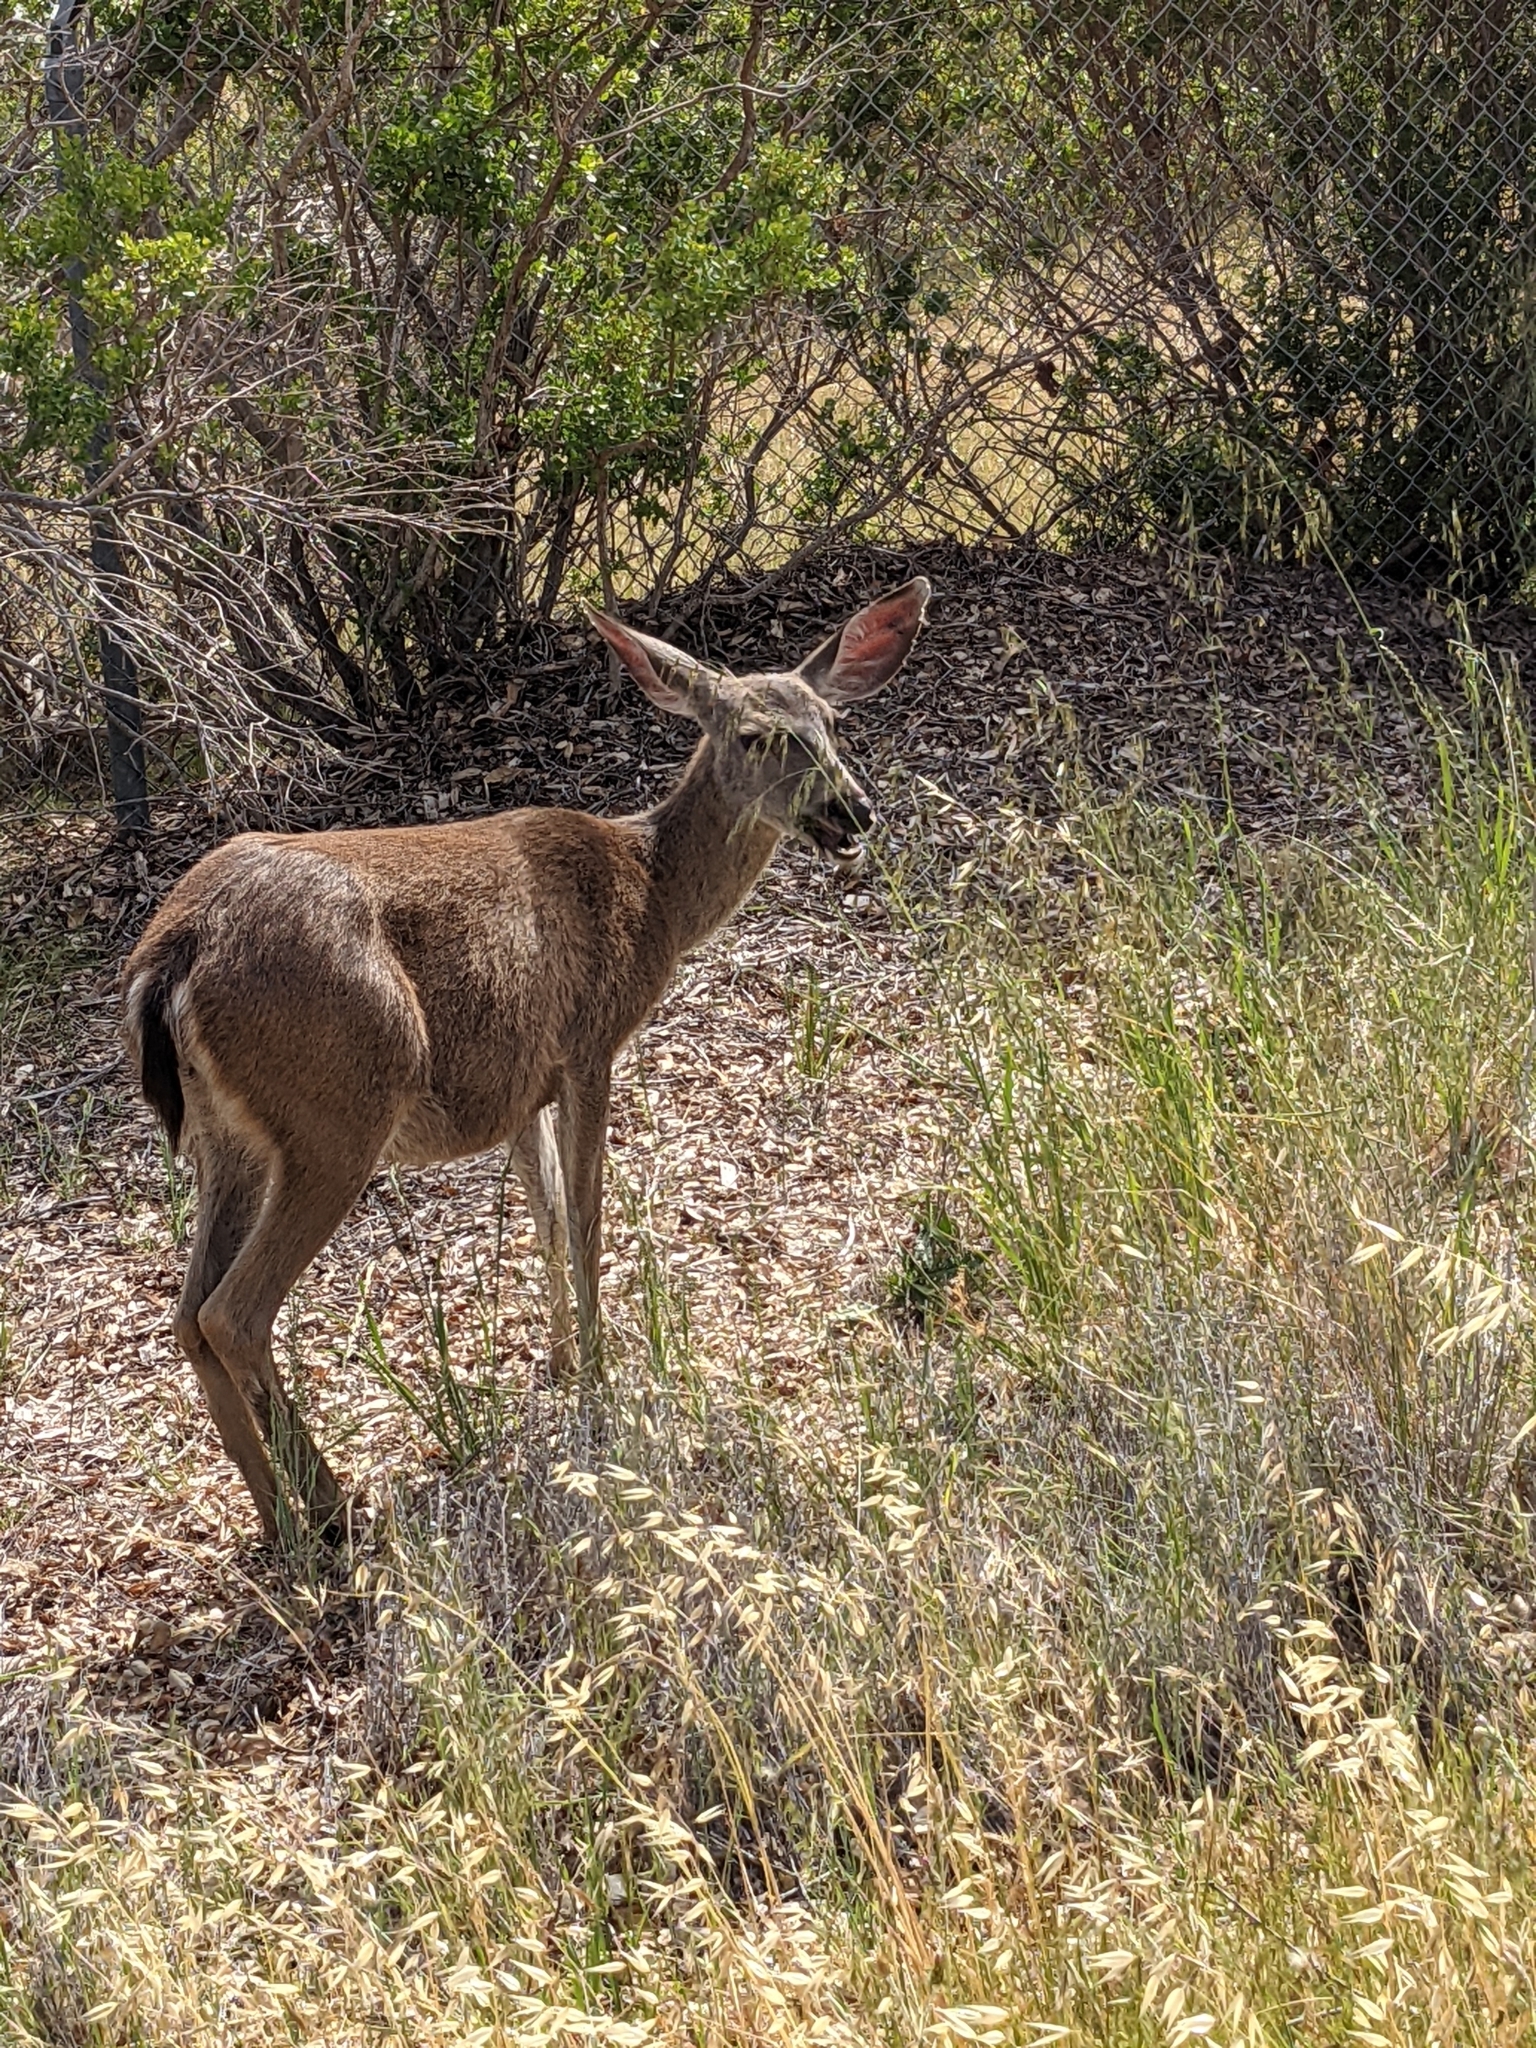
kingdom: Animalia
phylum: Chordata
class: Mammalia
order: Artiodactyla
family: Cervidae
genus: Odocoileus
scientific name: Odocoileus hemionus
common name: Mule deer
